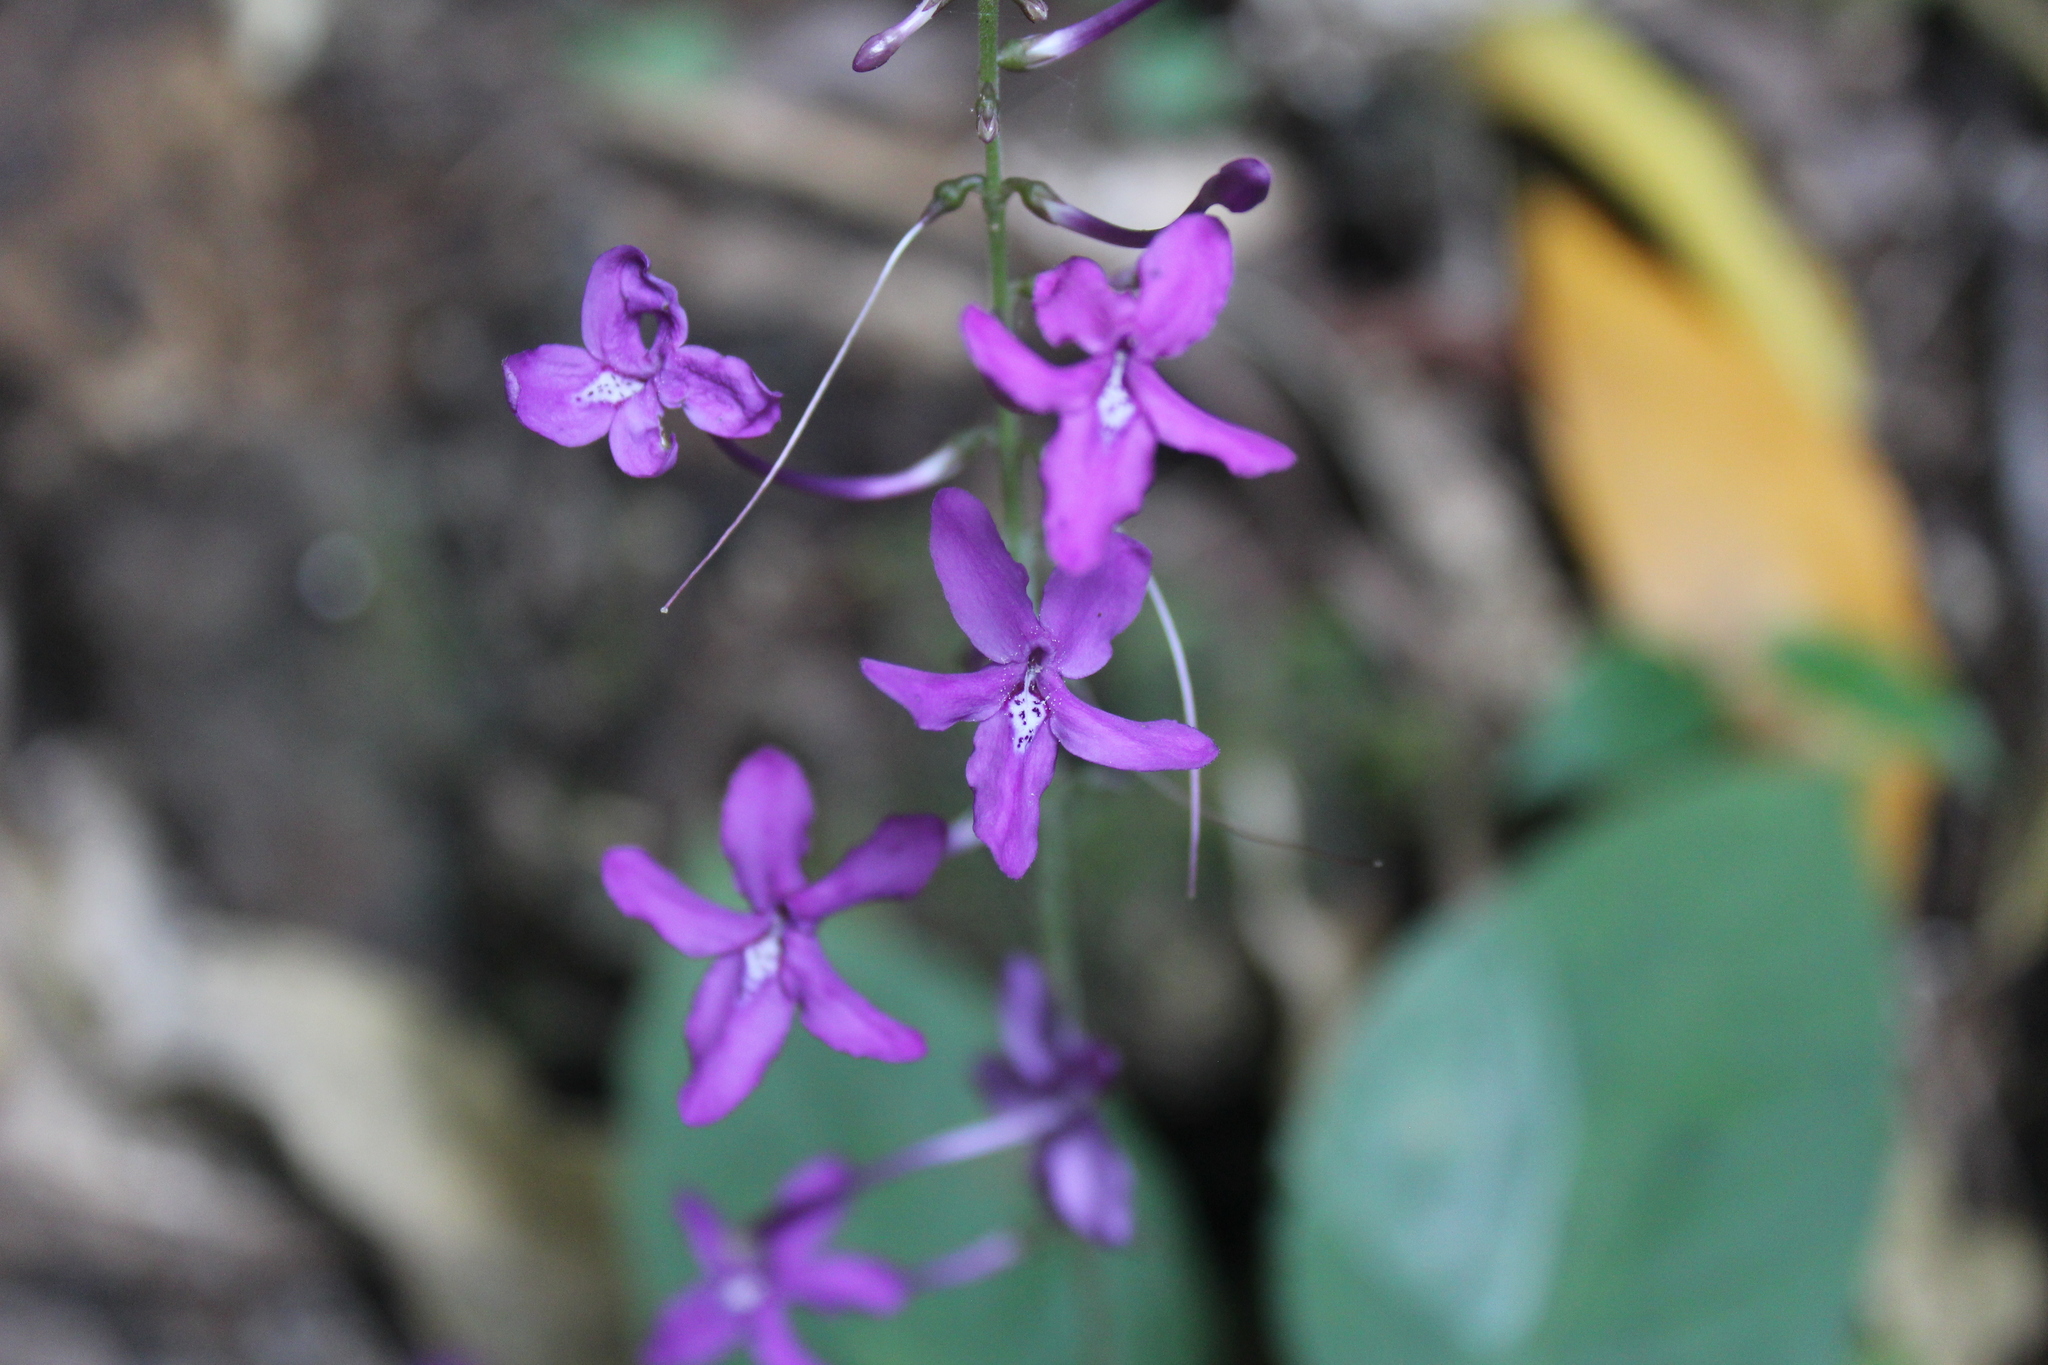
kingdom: Plantae
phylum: Tracheophyta
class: Magnoliopsida
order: Lamiales
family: Acanthaceae
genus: Pseuderanthemum
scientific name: Pseuderanthemum alatum
